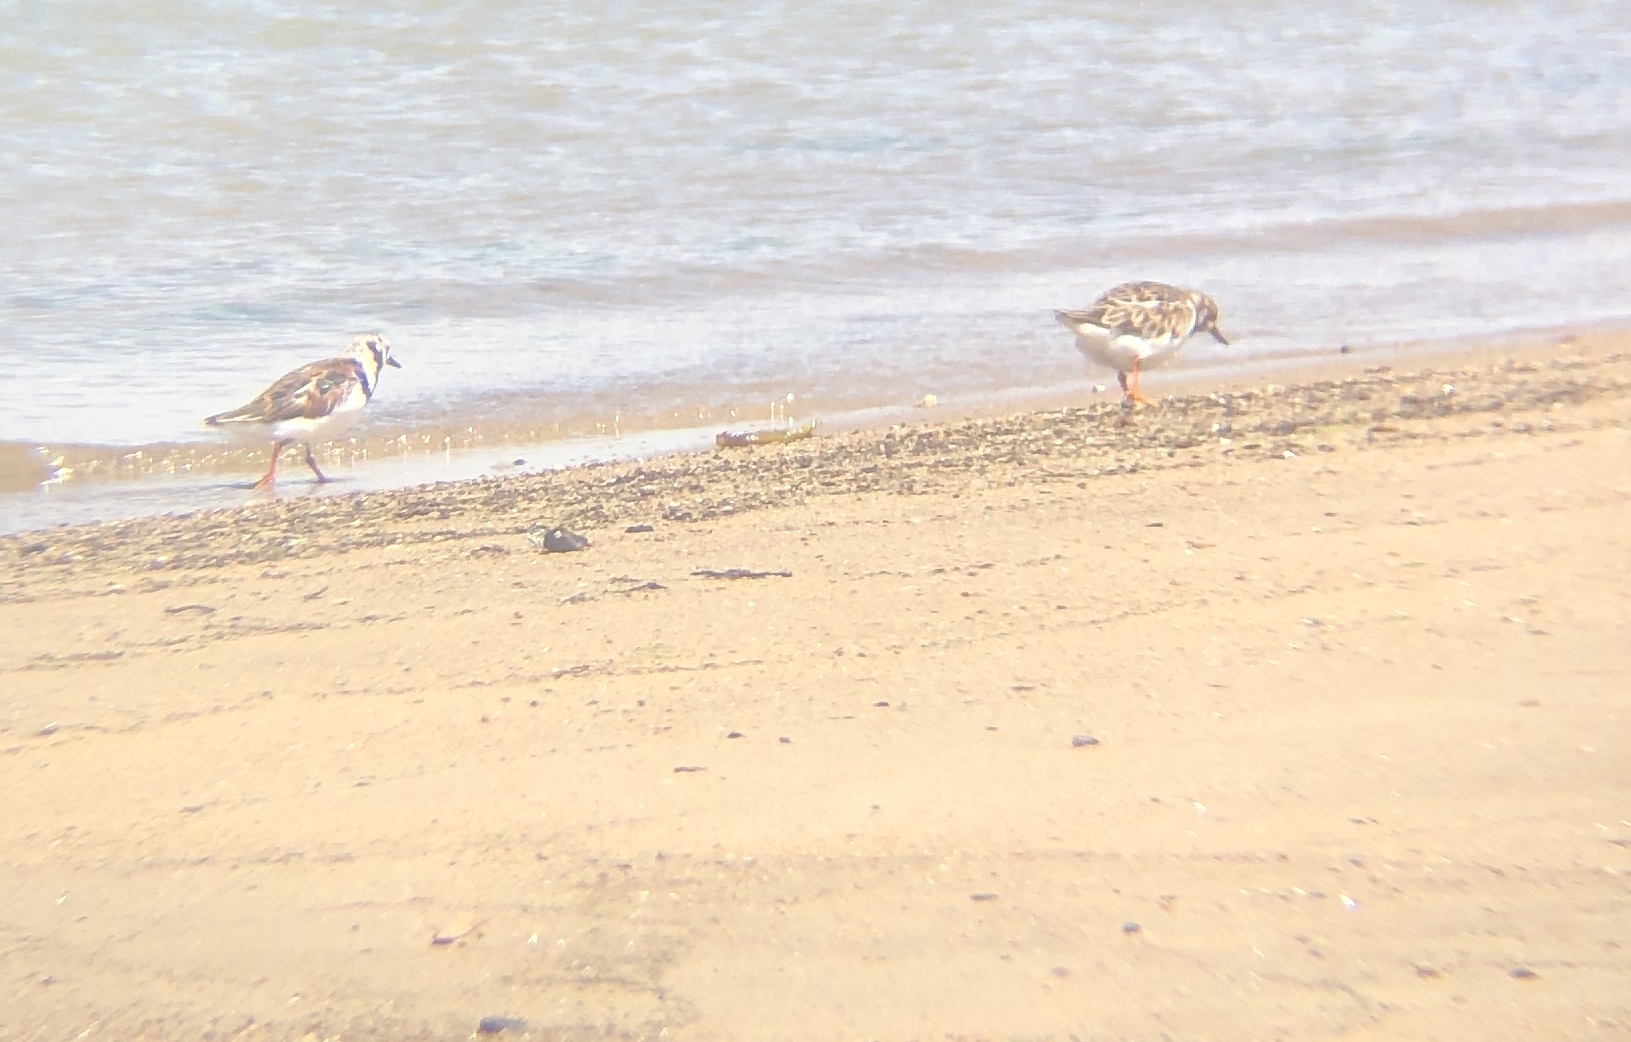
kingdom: Animalia
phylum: Chordata
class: Aves
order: Charadriiformes
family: Scolopacidae
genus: Arenaria
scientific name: Arenaria interpres
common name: Ruddy turnstone
